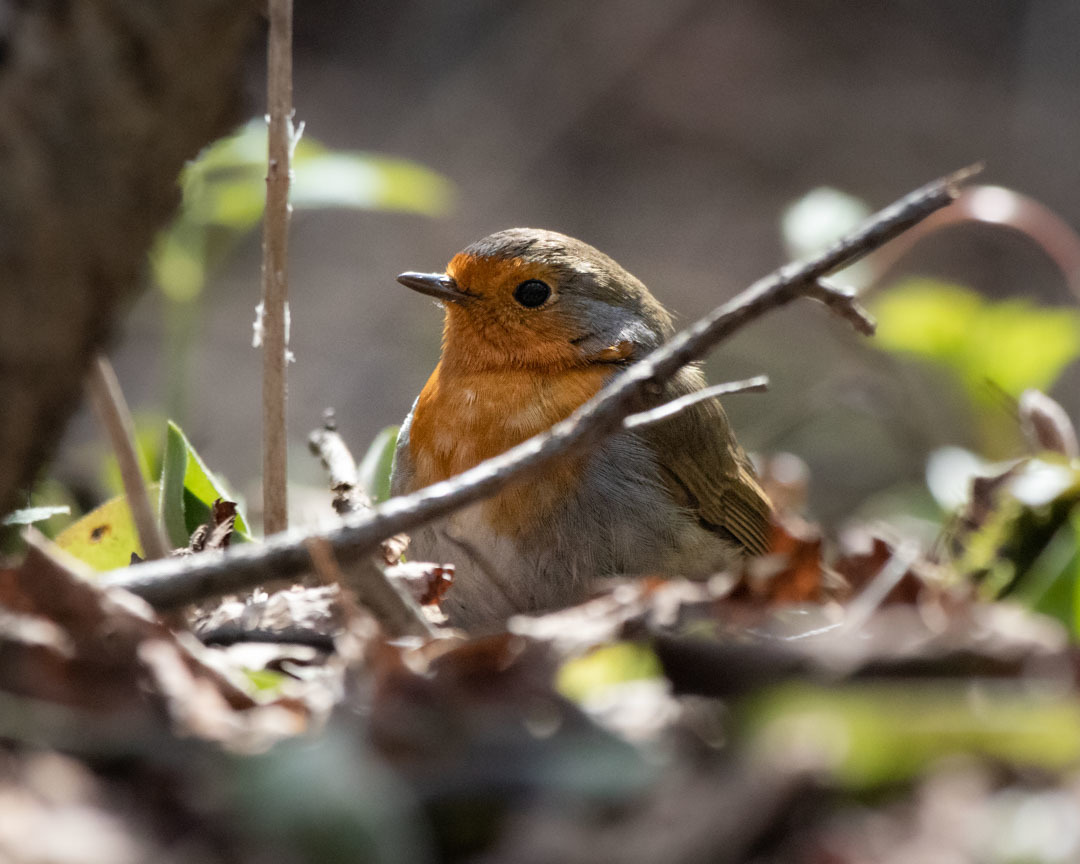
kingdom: Animalia
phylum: Chordata
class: Aves
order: Passeriformes
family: Muscicapidae
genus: Erithacus
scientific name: Erithacus rubecula
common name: European robin
